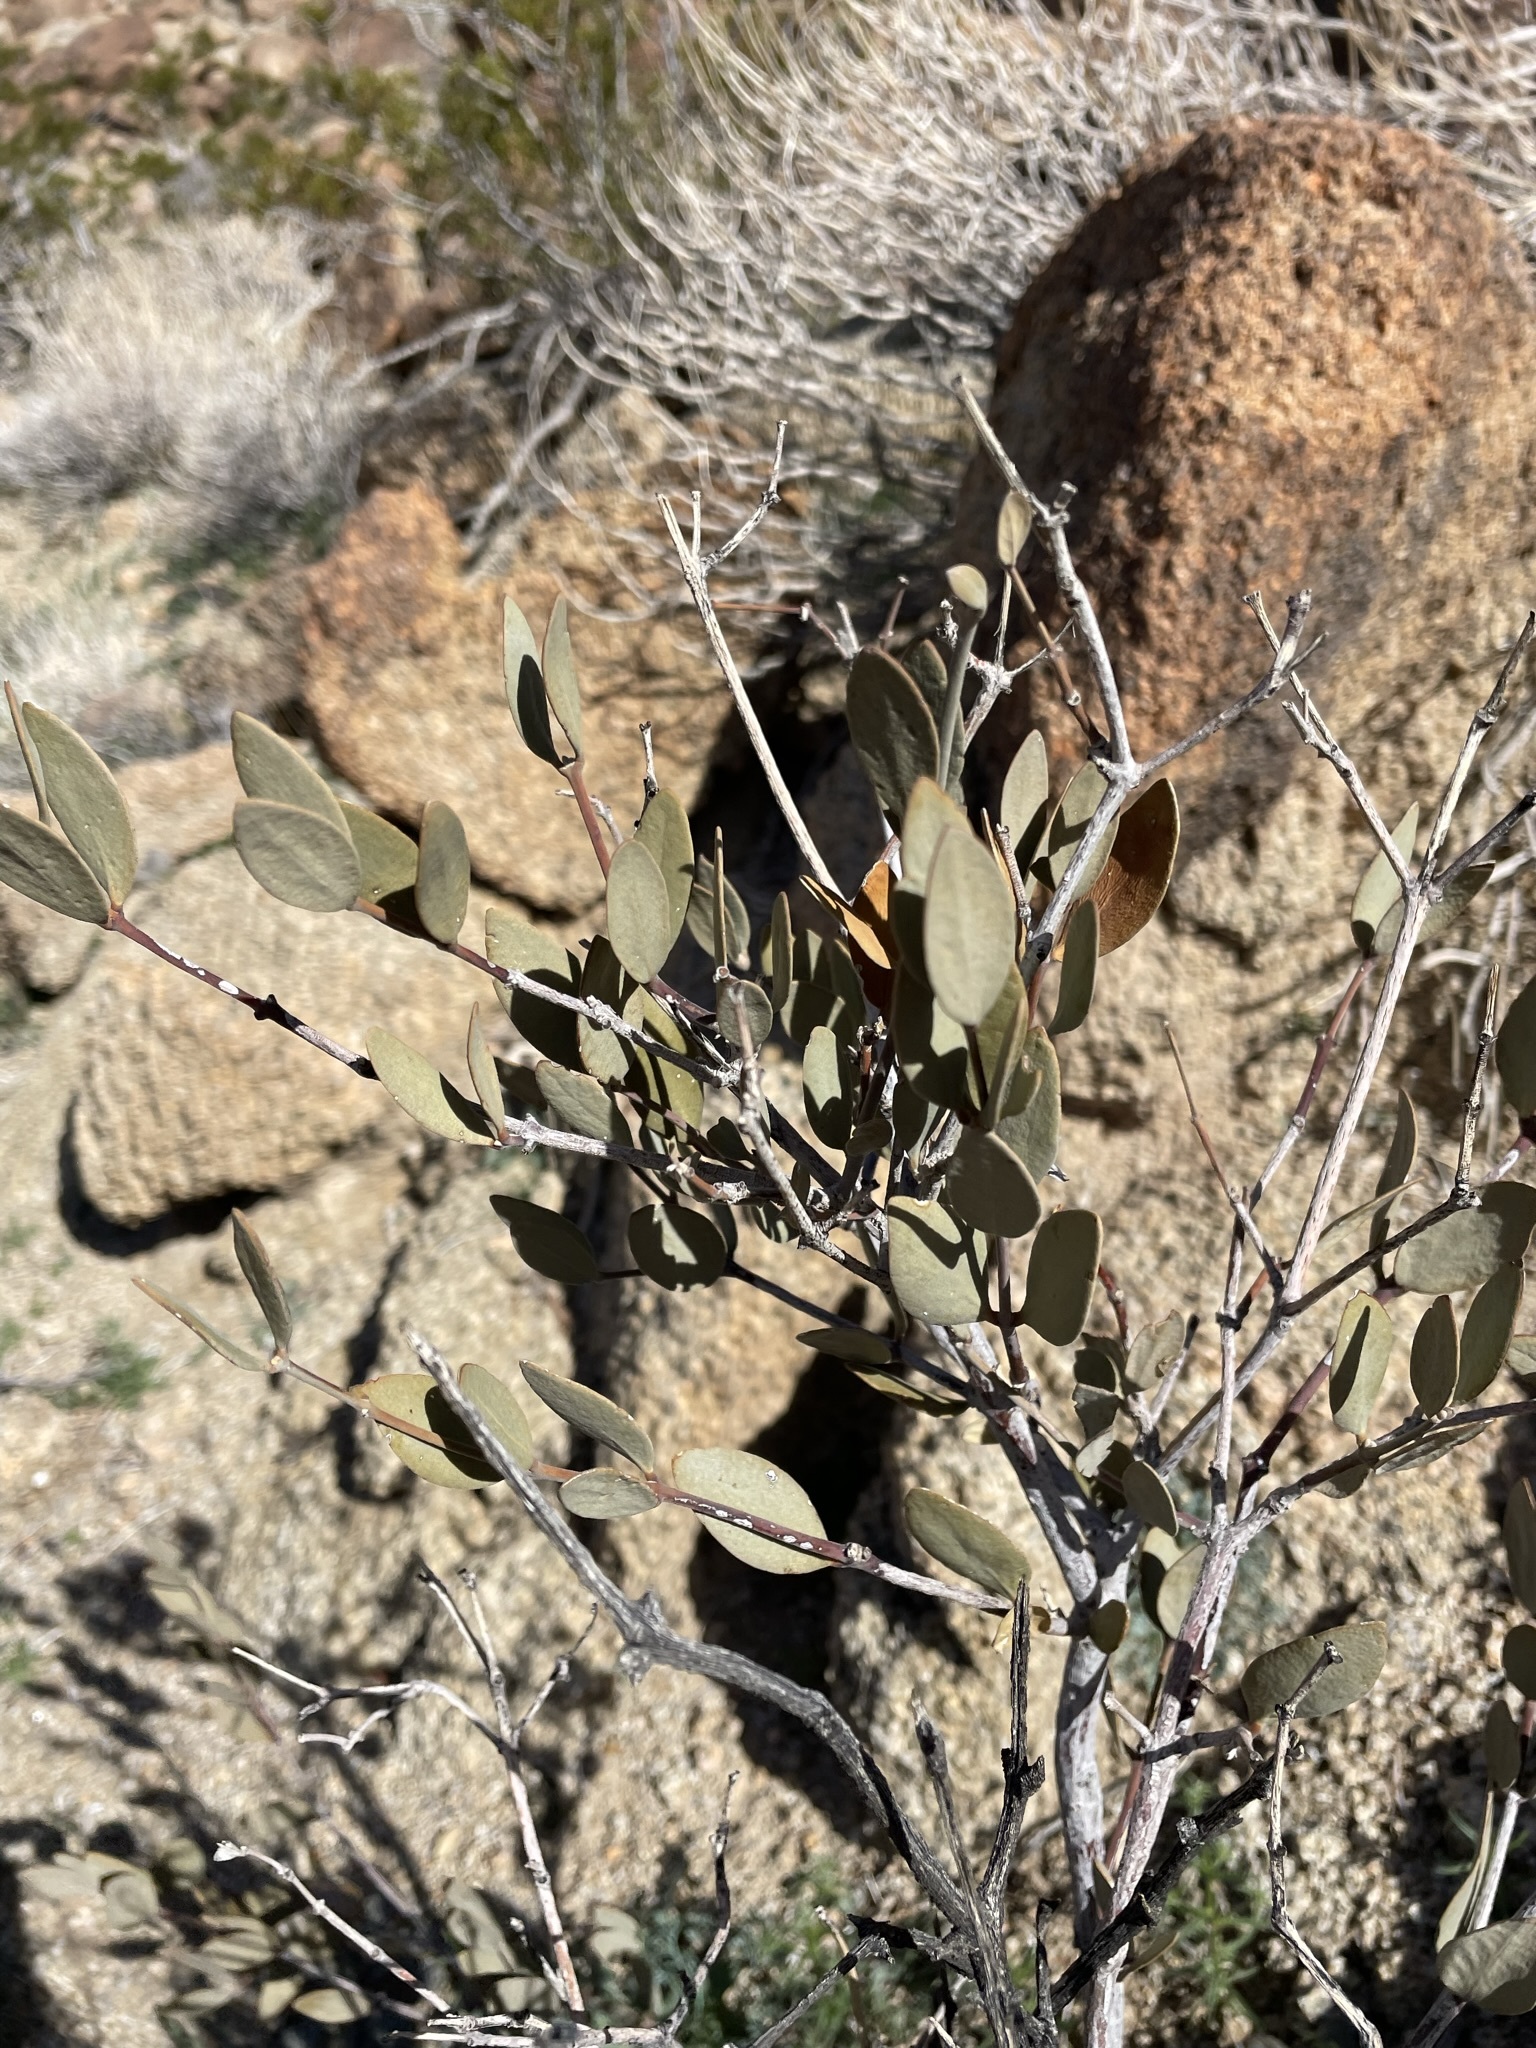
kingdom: Plantae
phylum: Tracheophyta
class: Magnoliopsida
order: Caryophyllales
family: Simmondsiaceae
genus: Simmondsia
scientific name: Simmondsia chinensis
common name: Jojoba
